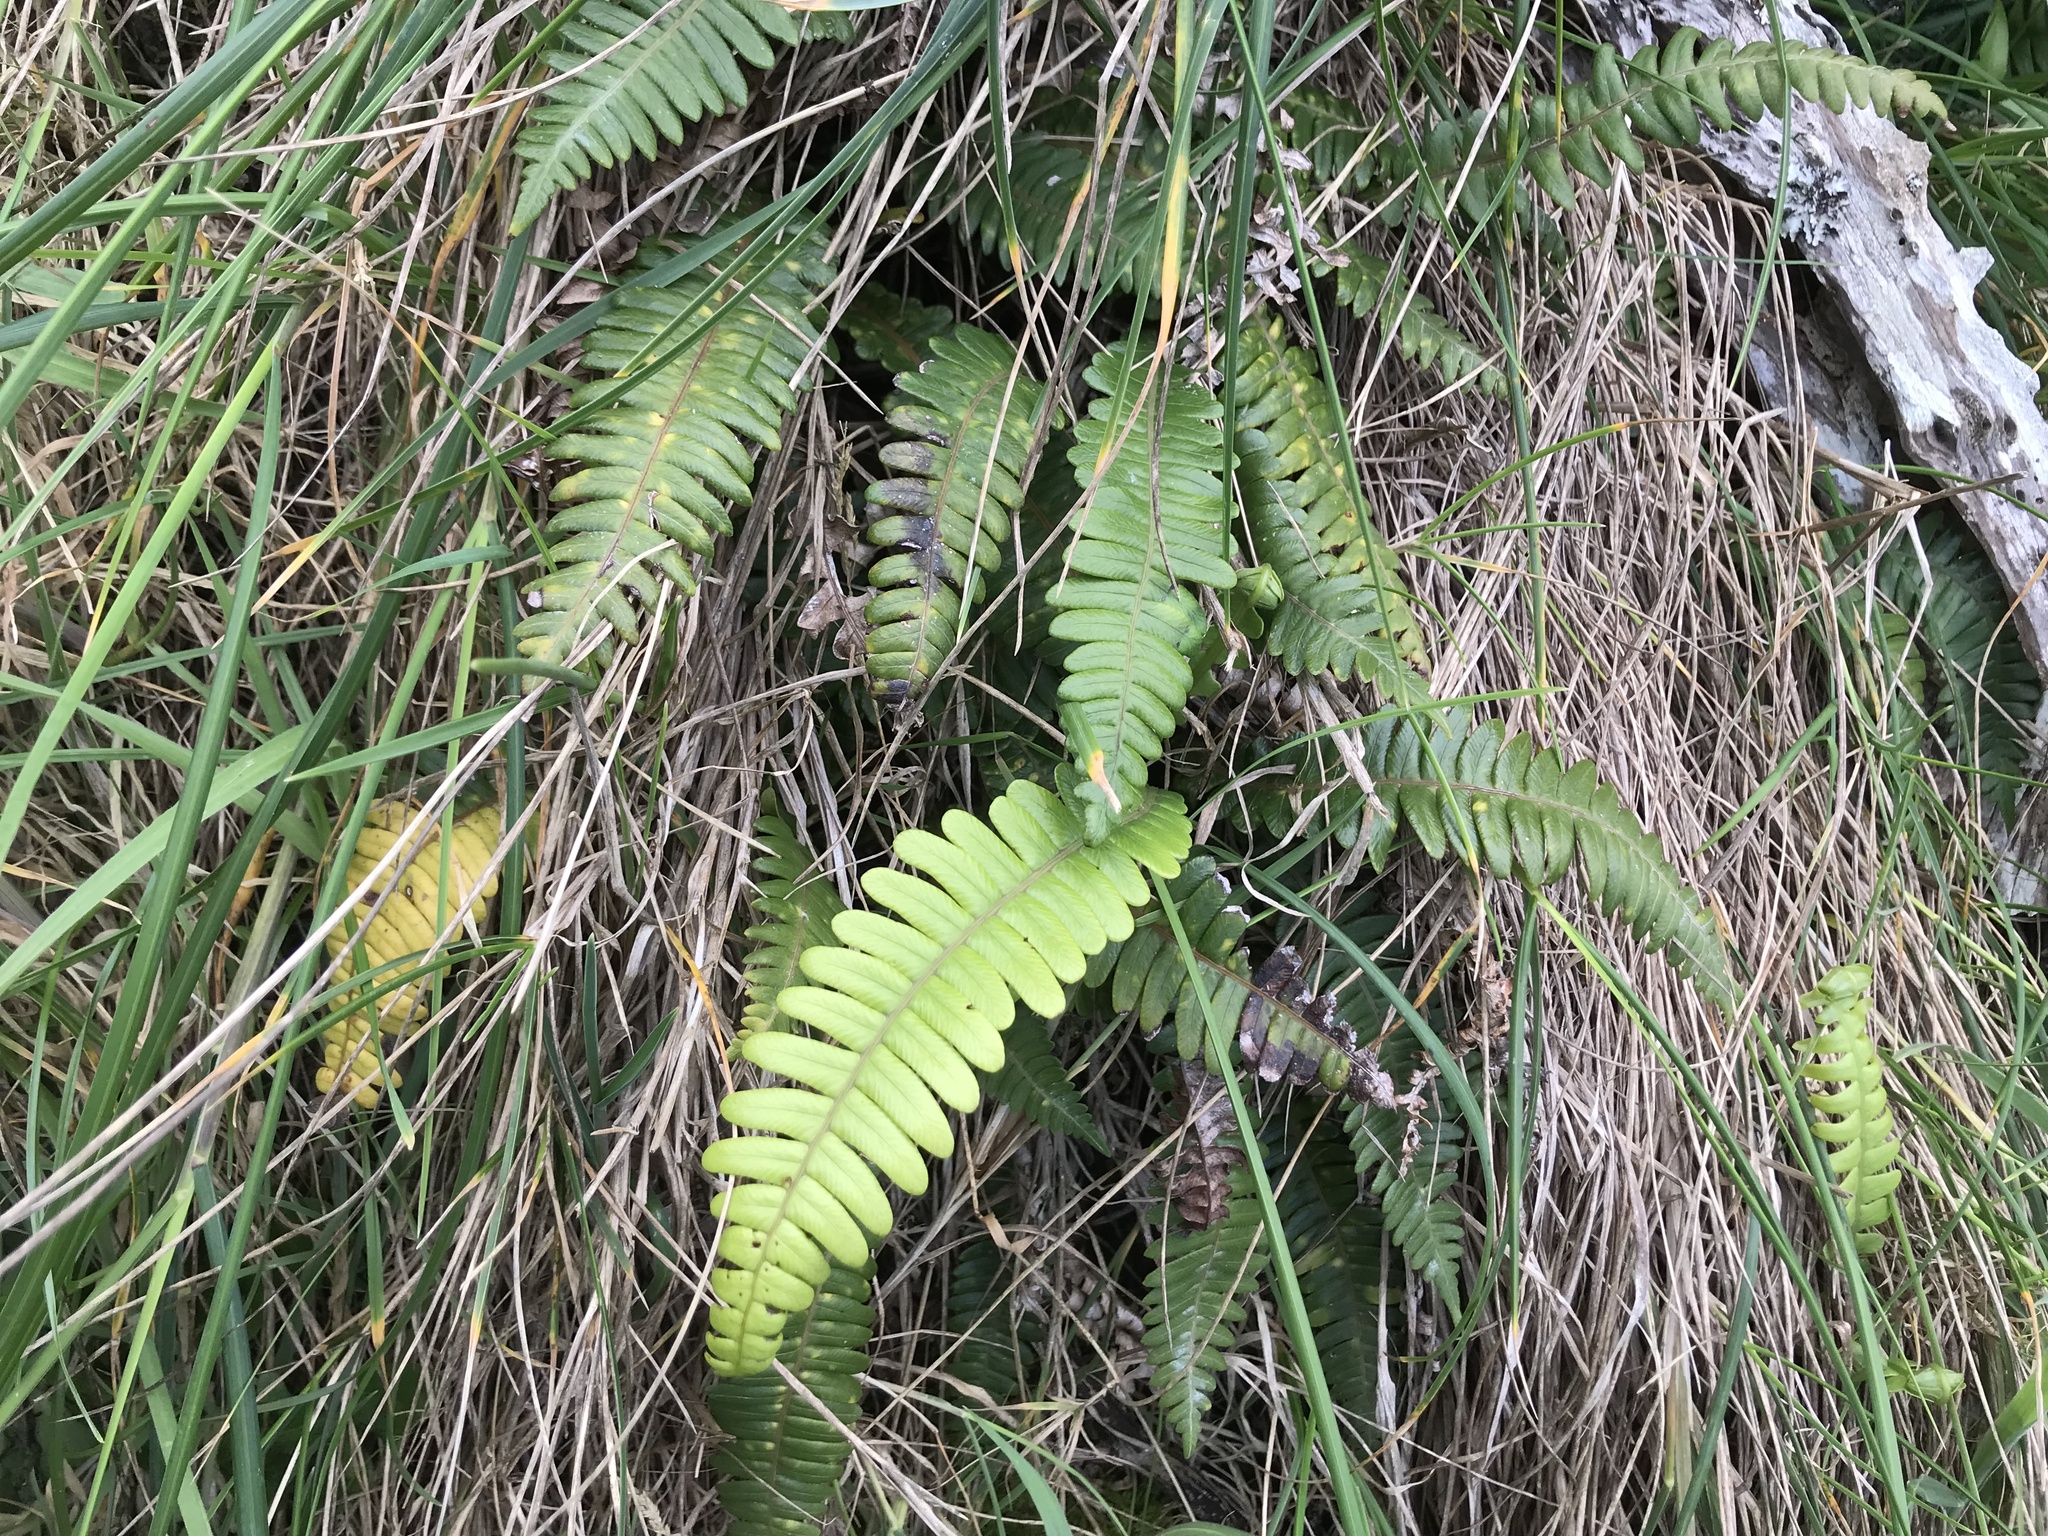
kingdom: Plantae
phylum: Tracheophyta
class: Polypodiopsida
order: Polypodiales
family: Blechnaceae
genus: Austroblechnum
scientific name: Austroblechnum durum
